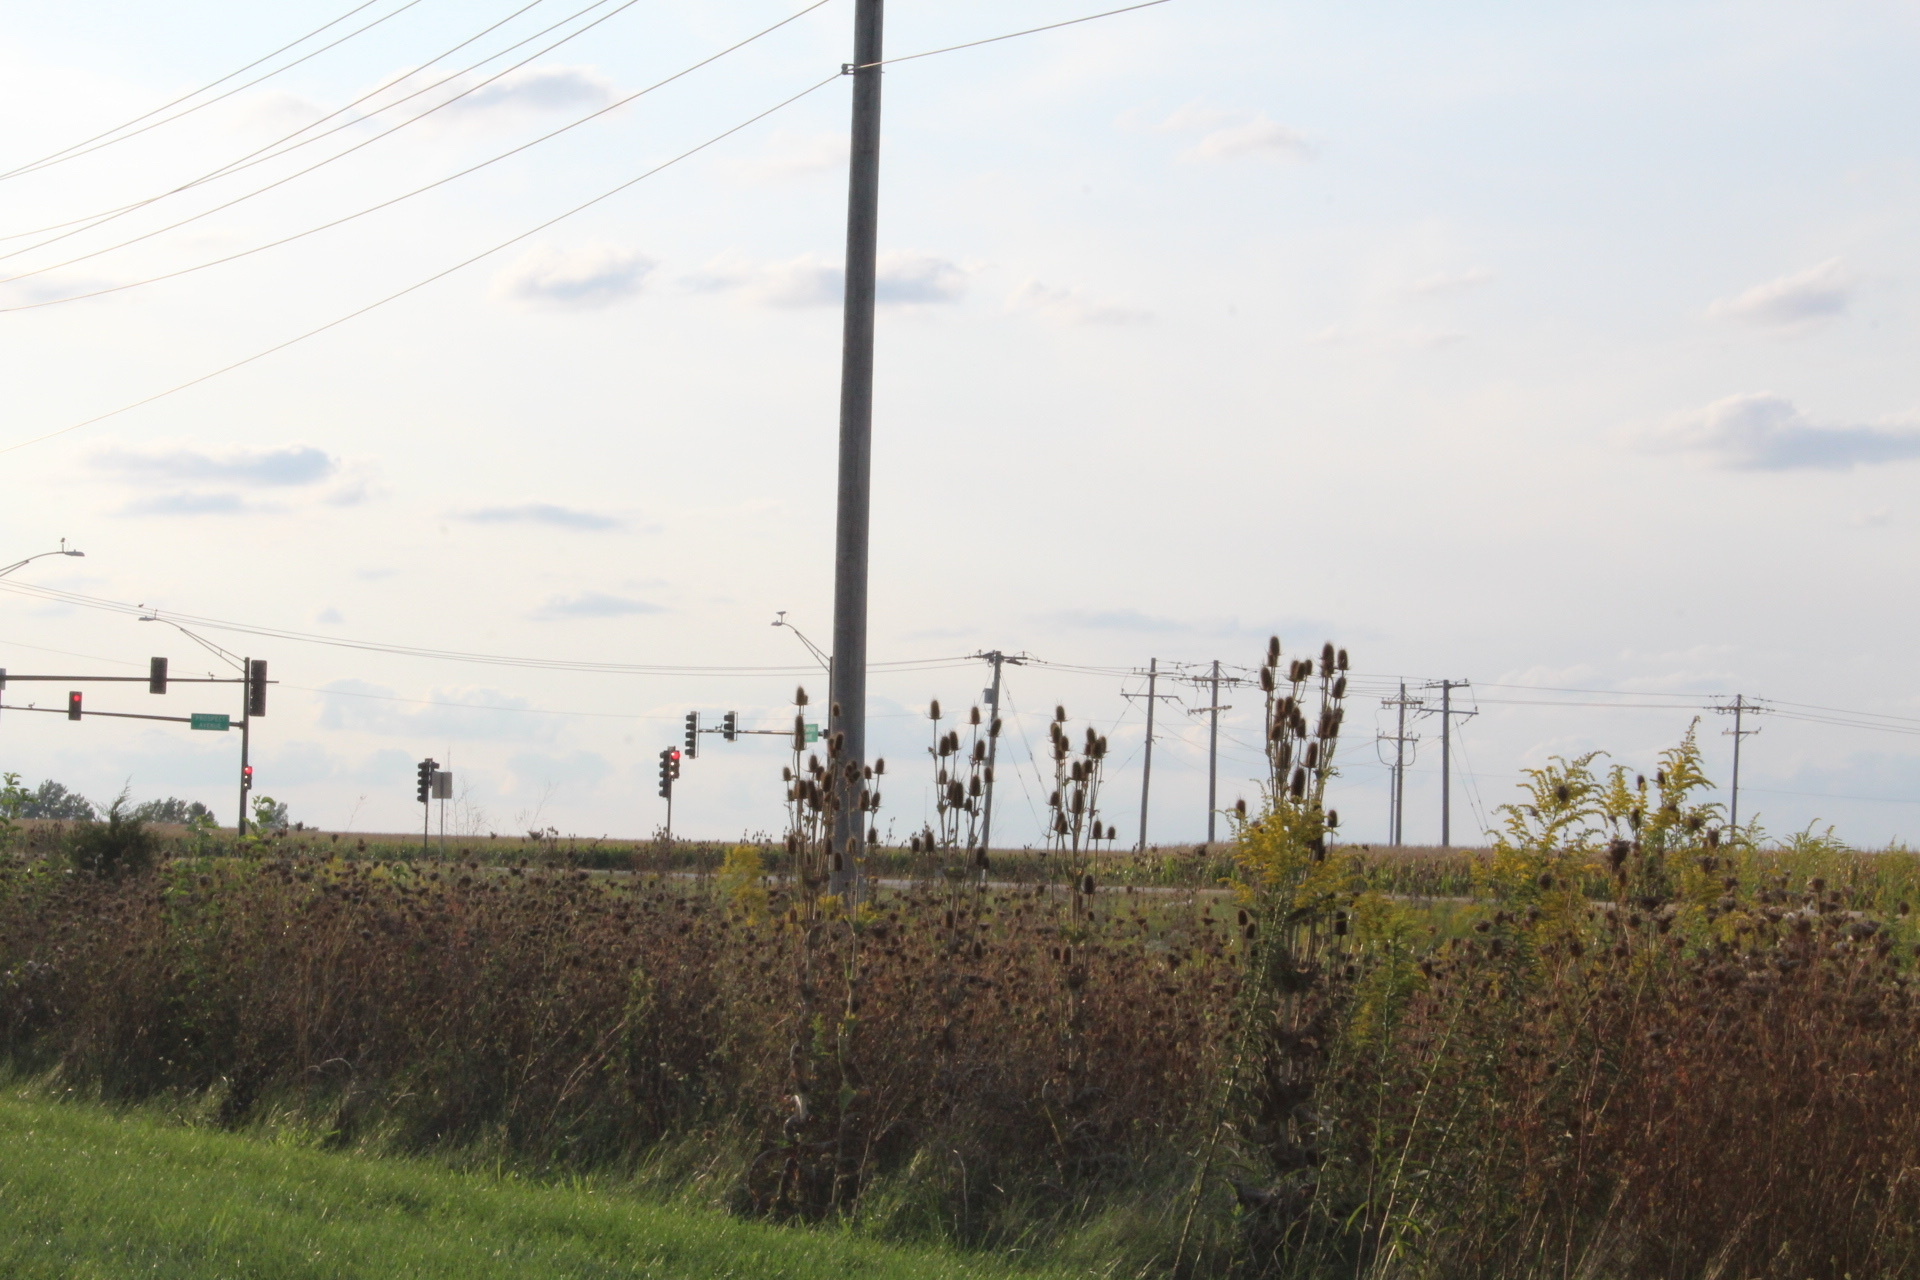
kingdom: Plantae
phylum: Tracheophyta
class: Magnoliopsida
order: Dipsacales
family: Caprifoliaceae
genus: Dipsacus
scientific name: Dipsacus laciniatus
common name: Cut-leaved teasel
